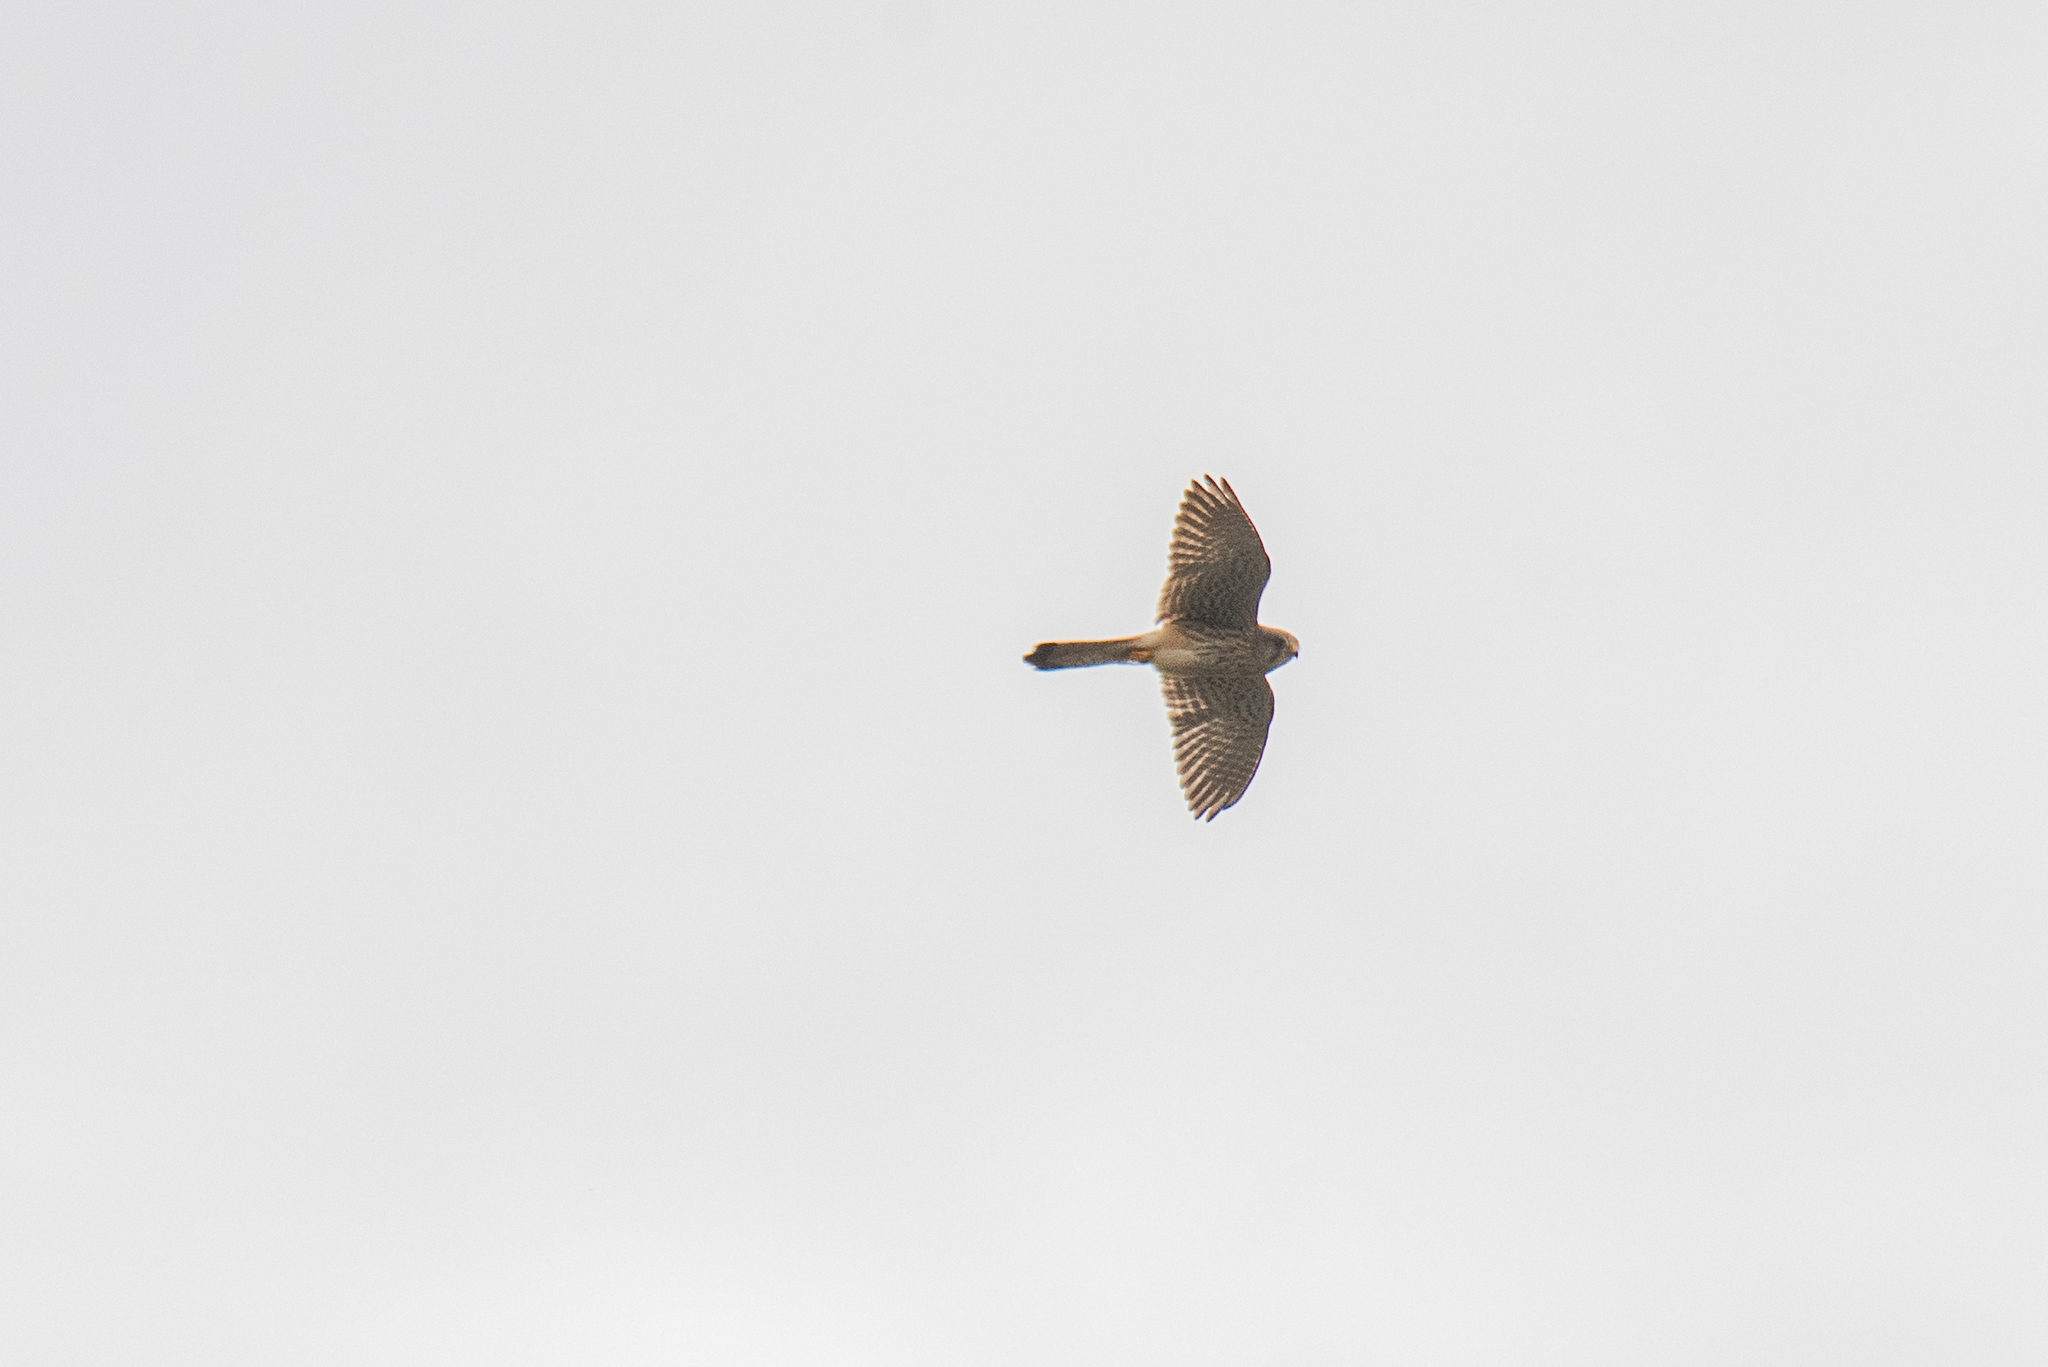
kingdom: Animalia
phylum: Chordata
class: Aves
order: Falconiformes
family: Falconidae
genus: Falco
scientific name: Falco tinnunculus
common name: Common kestrel
